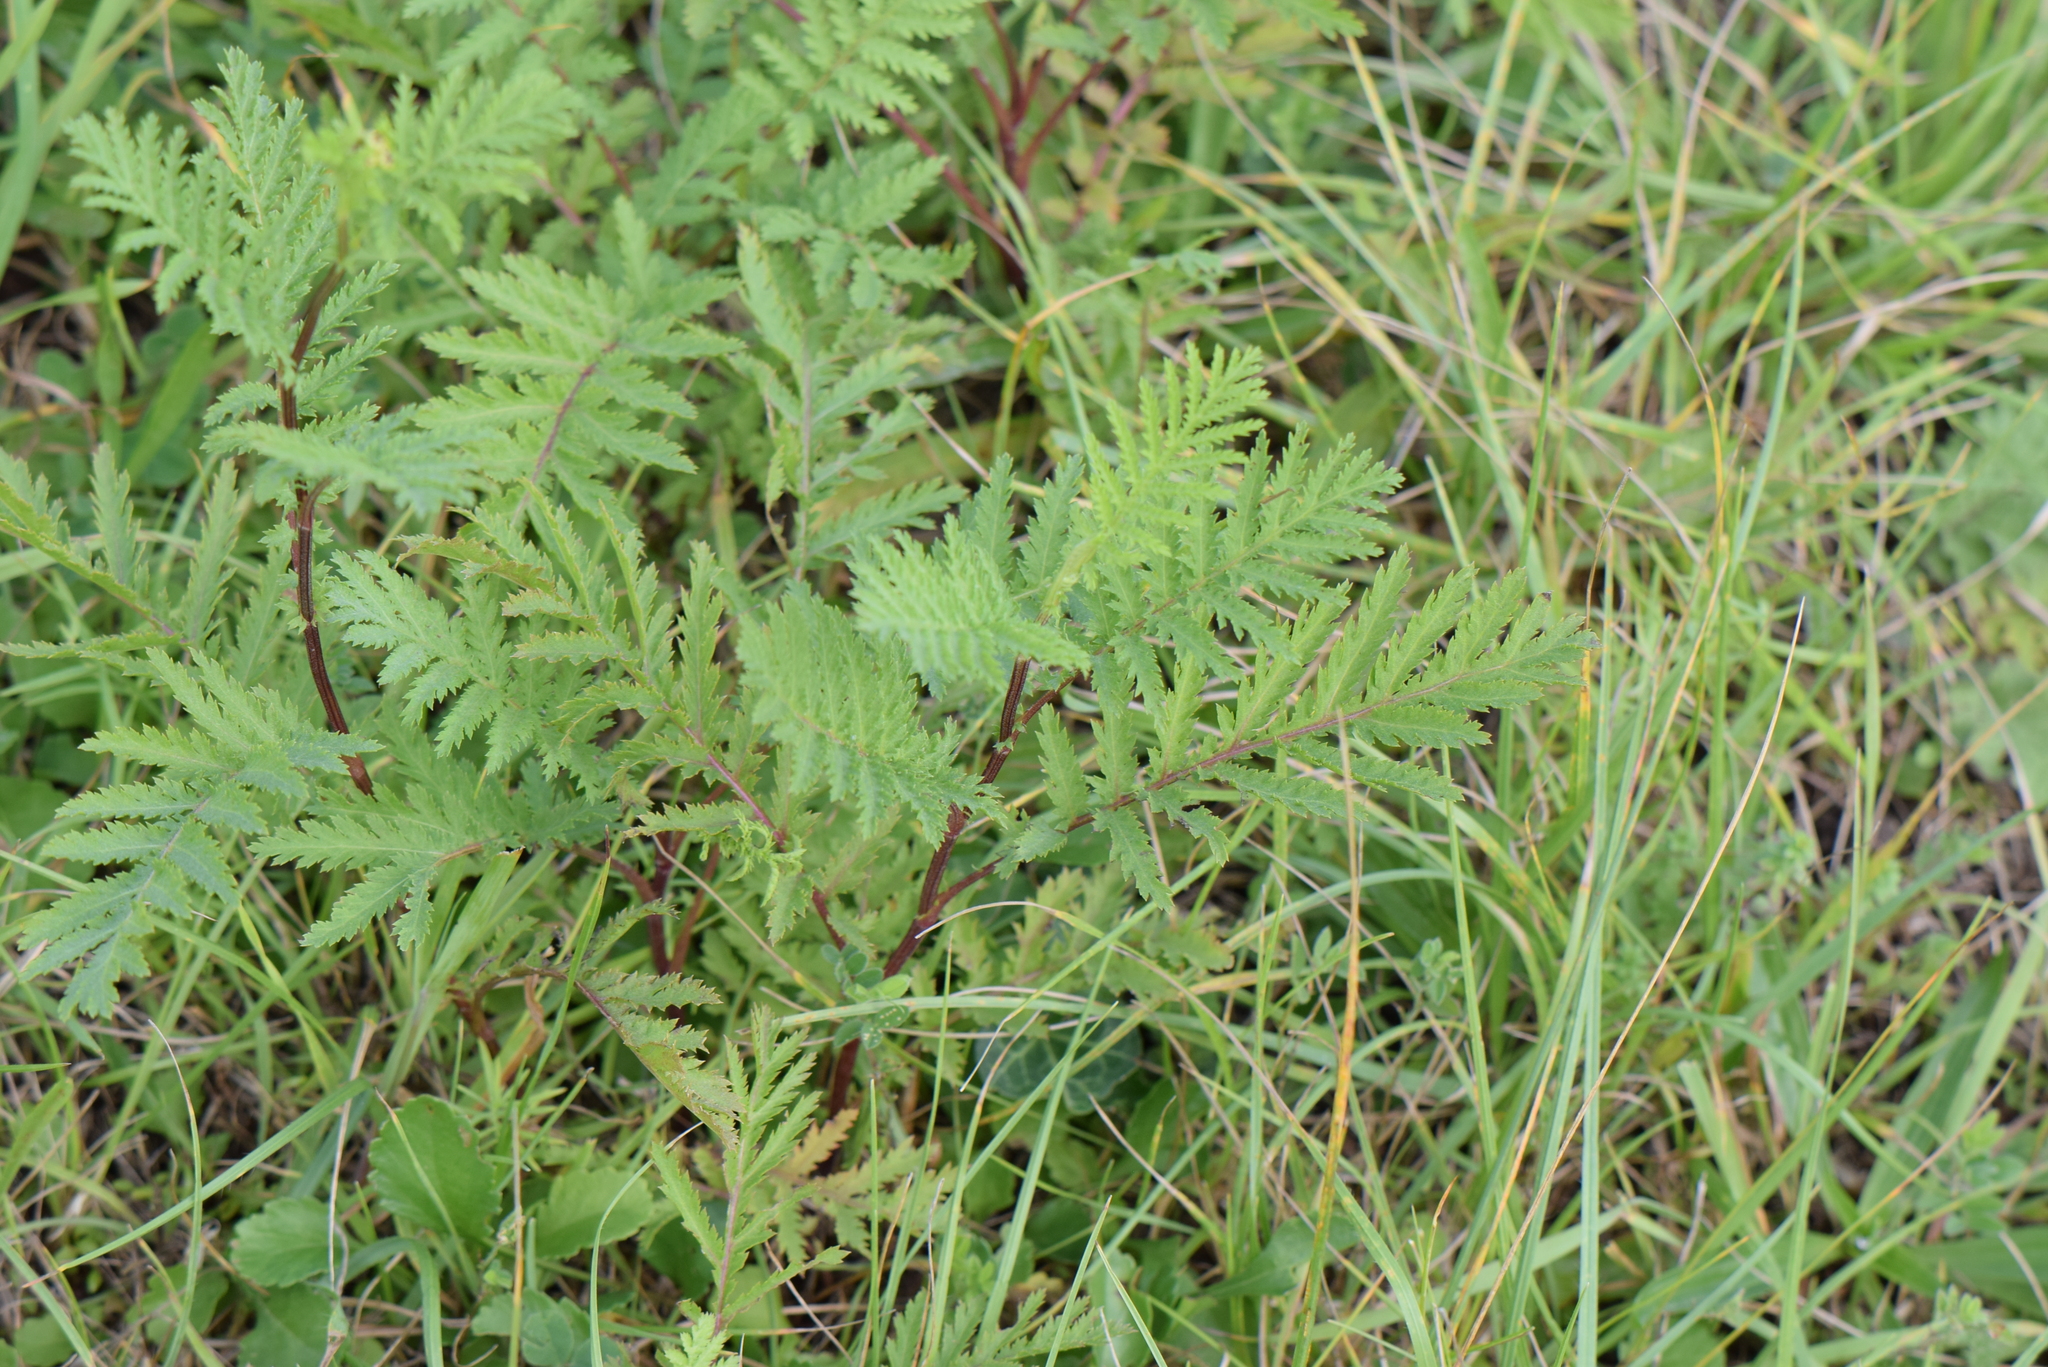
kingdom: Plantae
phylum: Tracheophyta
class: Magnoliopsida
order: Asterales
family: Asteraceae
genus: Tanacetum
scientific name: Tanacetum vulgare
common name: Common tansy
